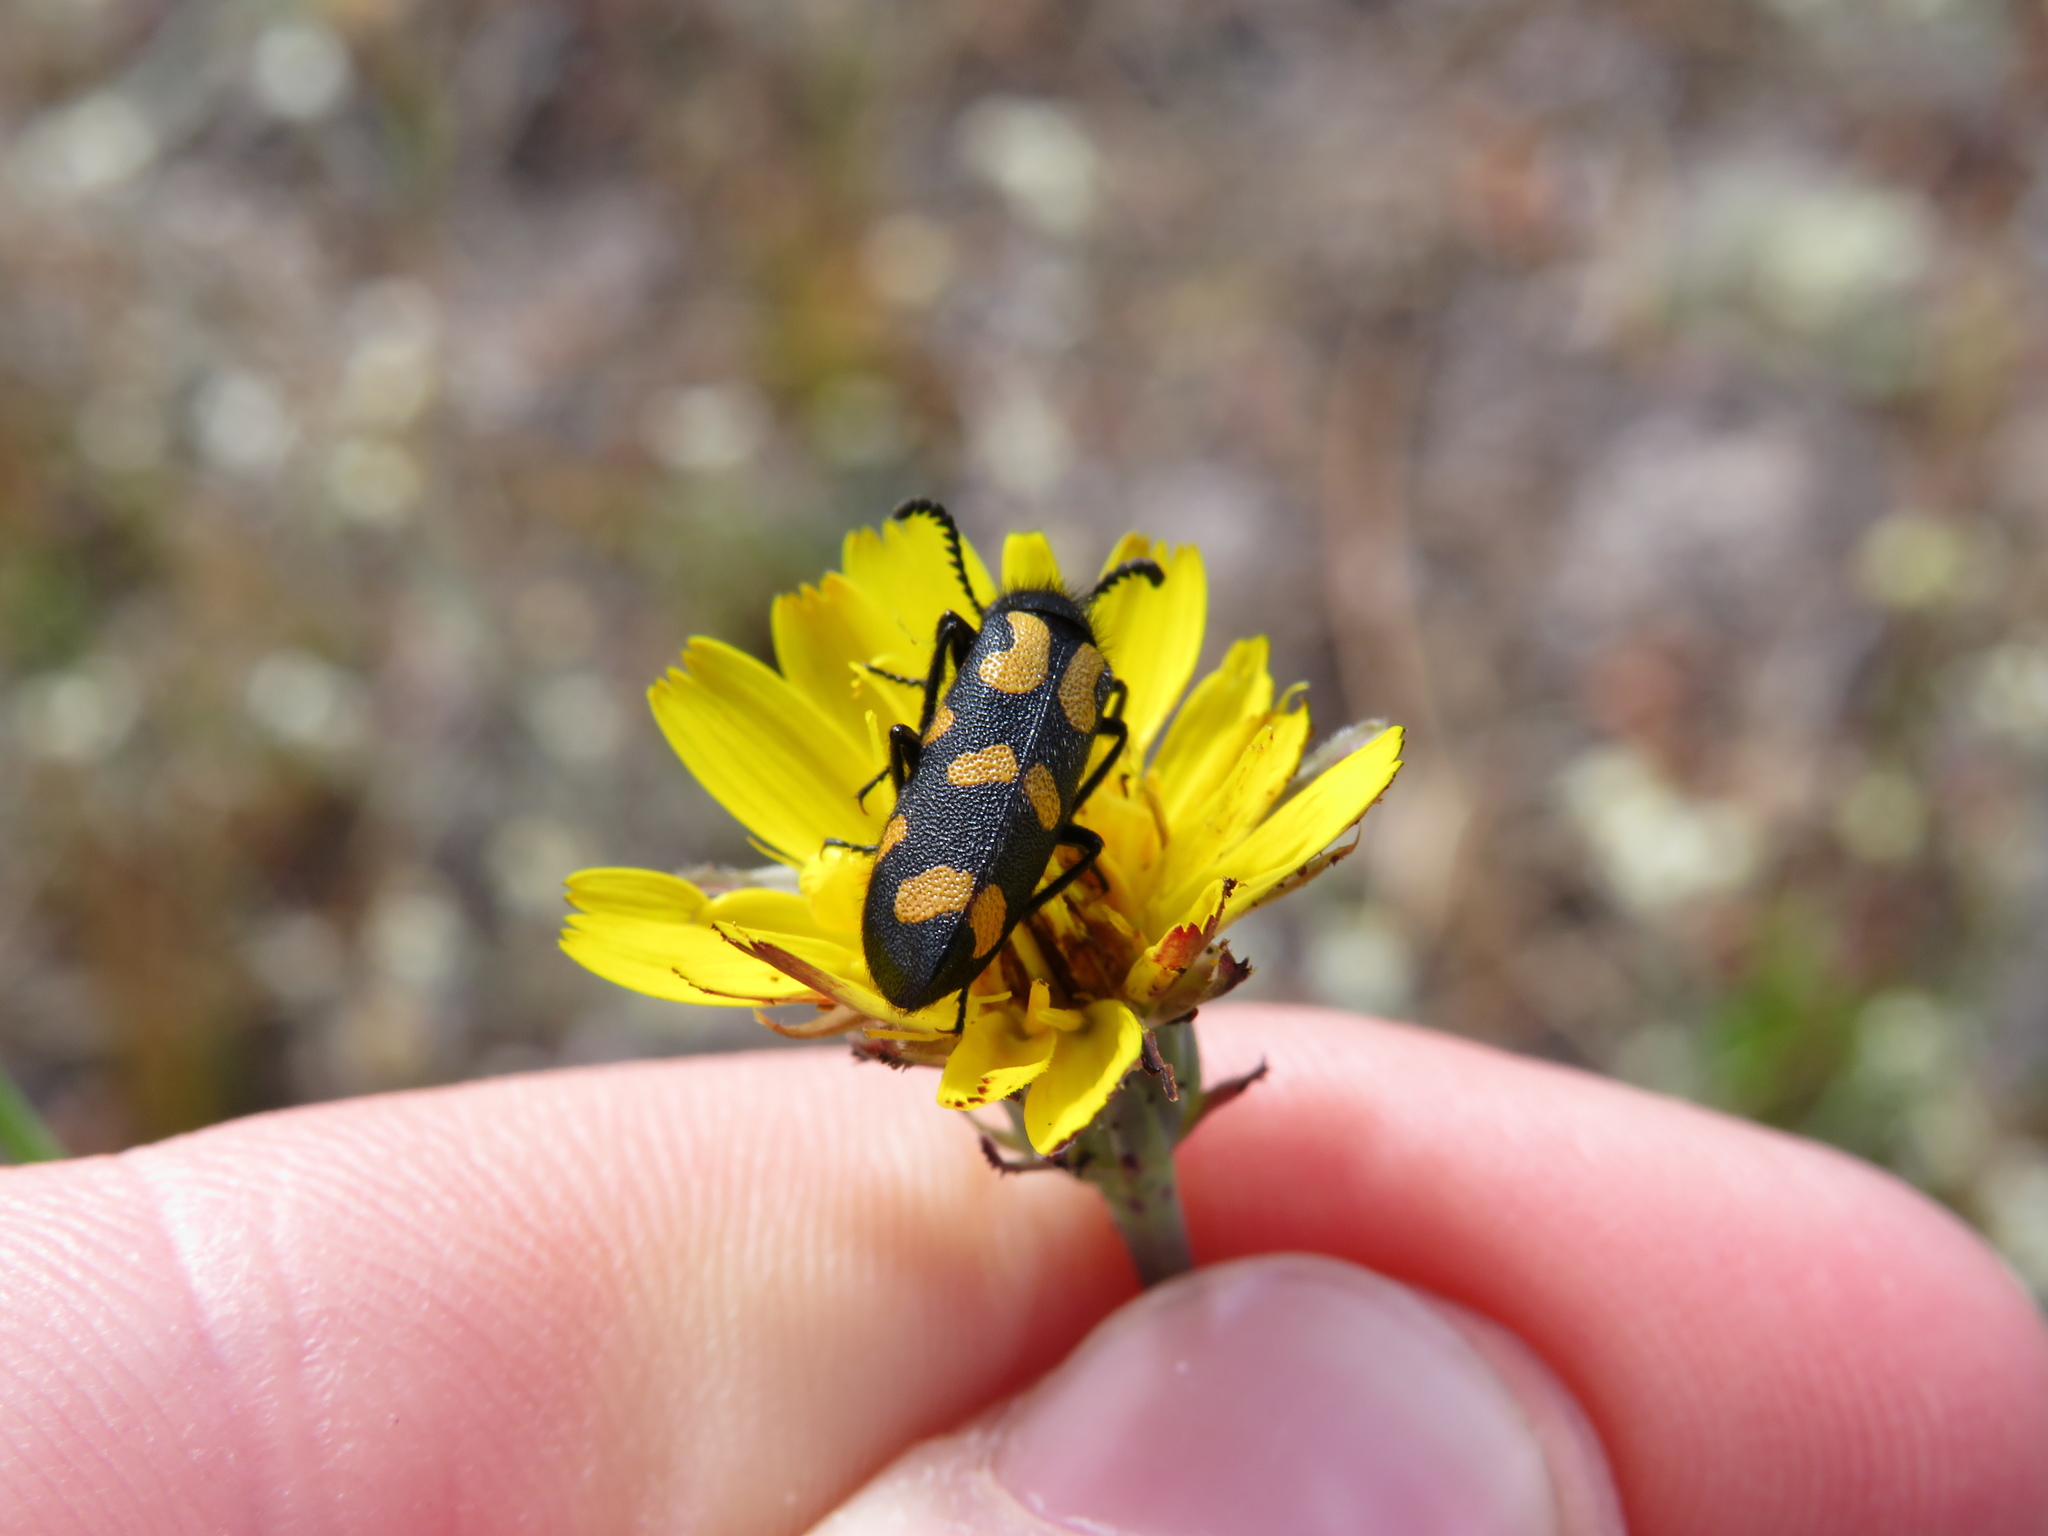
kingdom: Animalia
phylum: Arthropoda
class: Insecta
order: Coleoptera
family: Meloidae
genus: Ceroctis
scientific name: Ceroctis capensis
